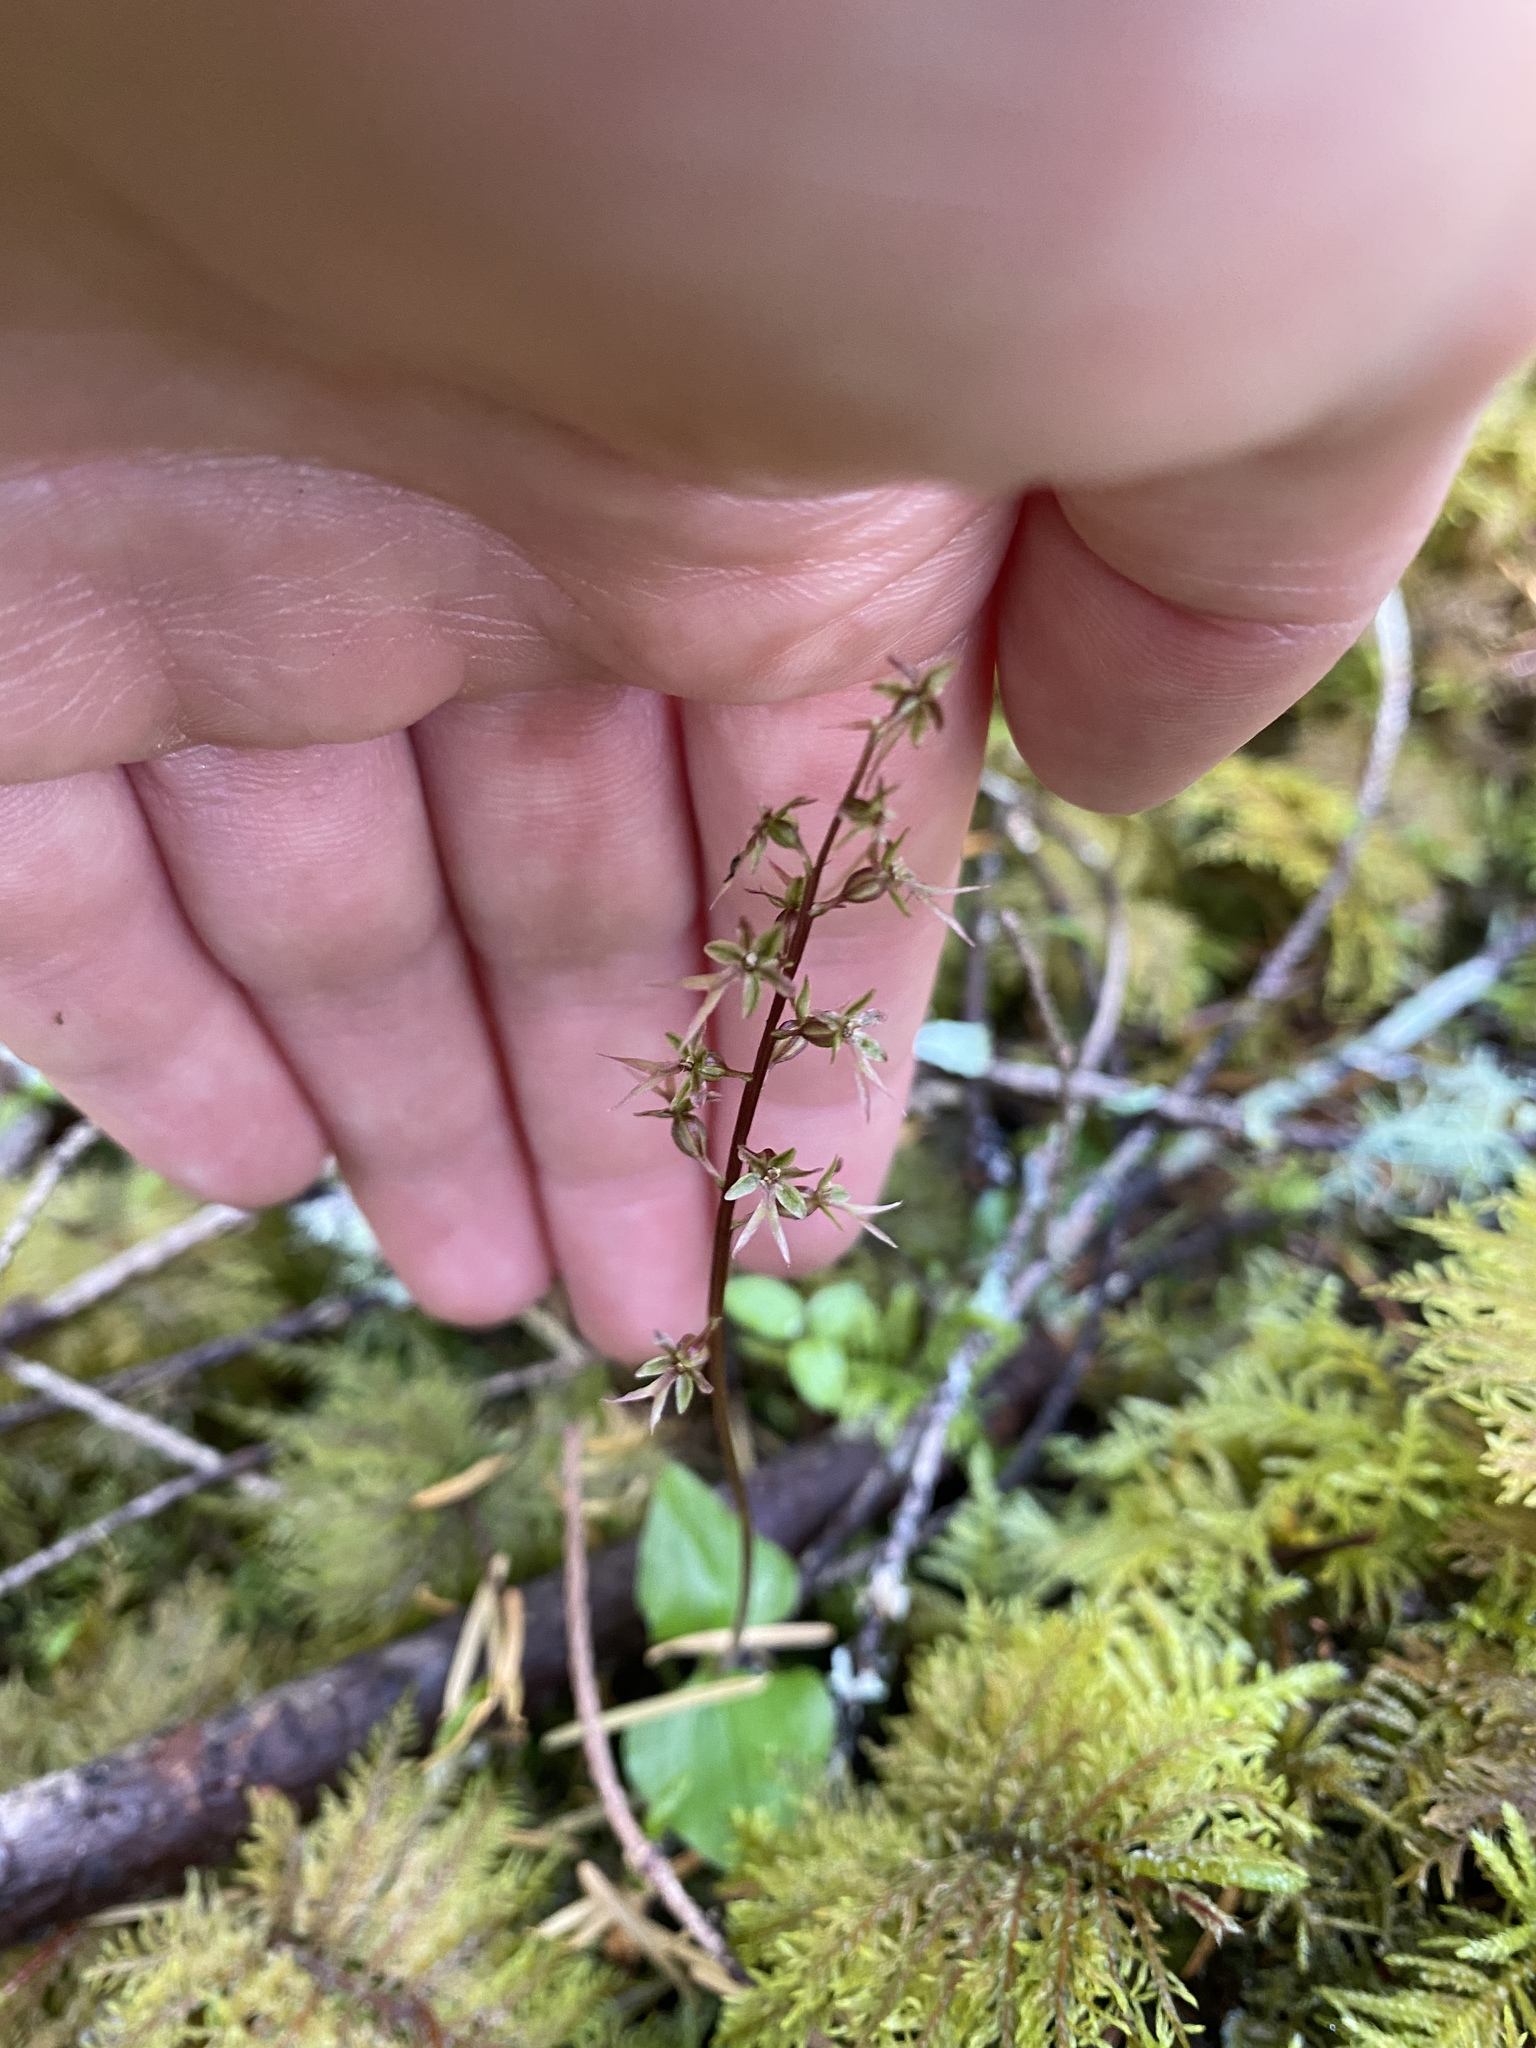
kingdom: Plantae
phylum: Tracheophyta
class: Liliopsida
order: Asparagales
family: Orchidaceae
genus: Neottia
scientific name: Neottia cordata
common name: Lesser twayblade
